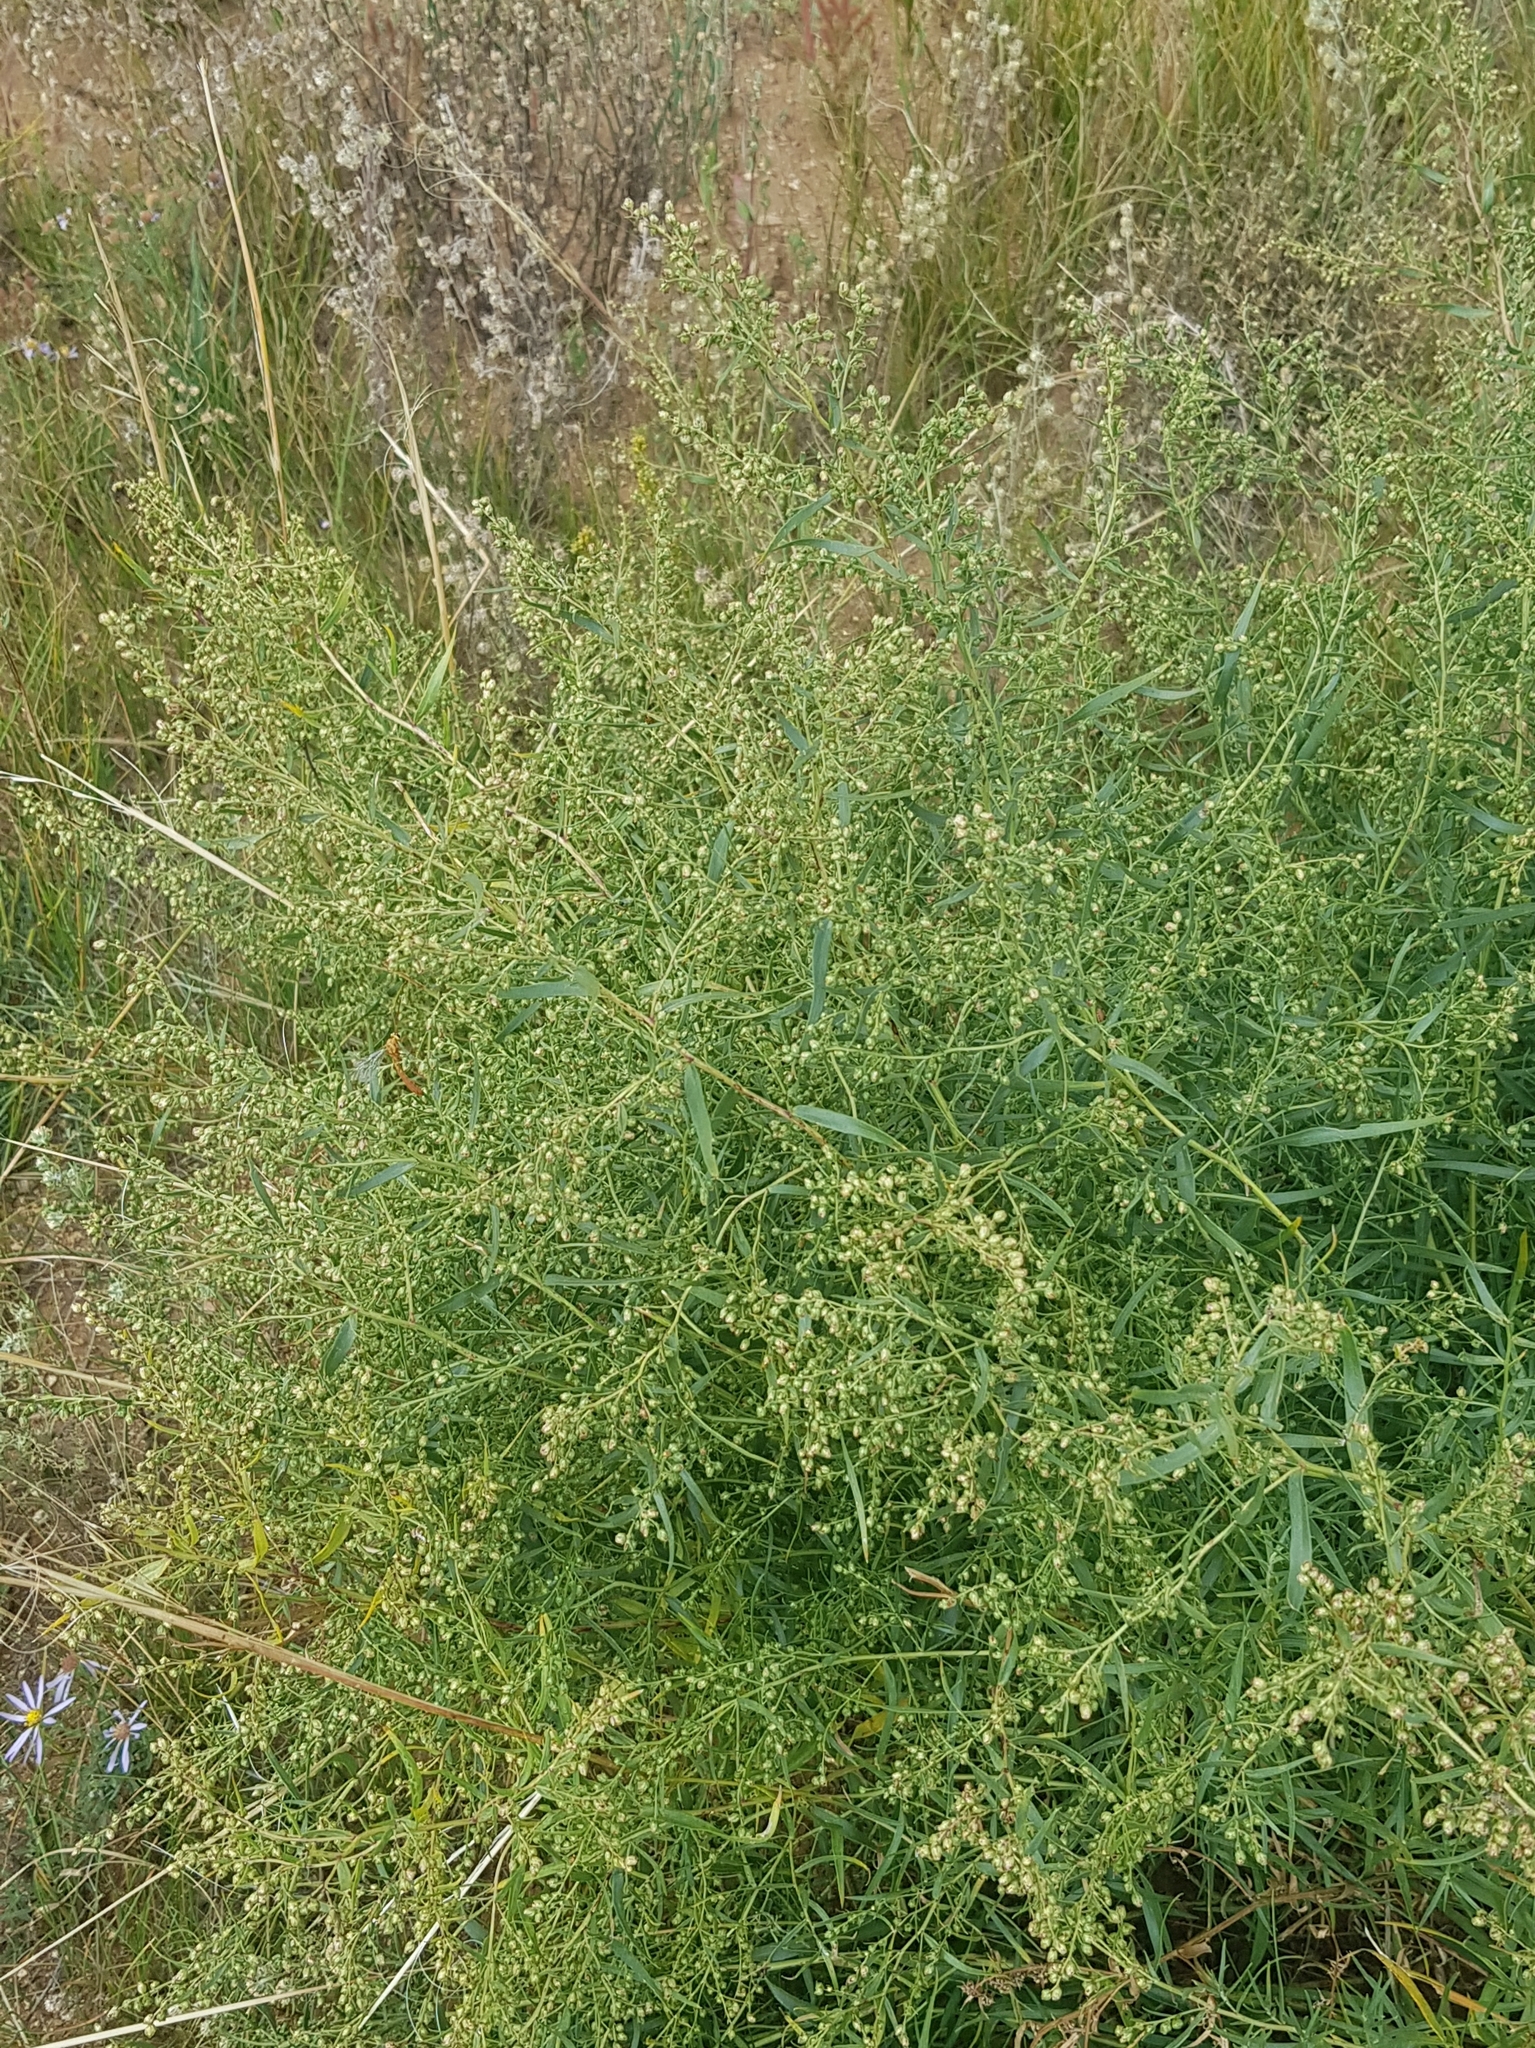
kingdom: Plantae
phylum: Tracheophyta
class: Magnoliopsida
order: Asterales
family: Asteraceae
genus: Artemisia
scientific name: Artemisia dracunculus
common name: Tarragon
